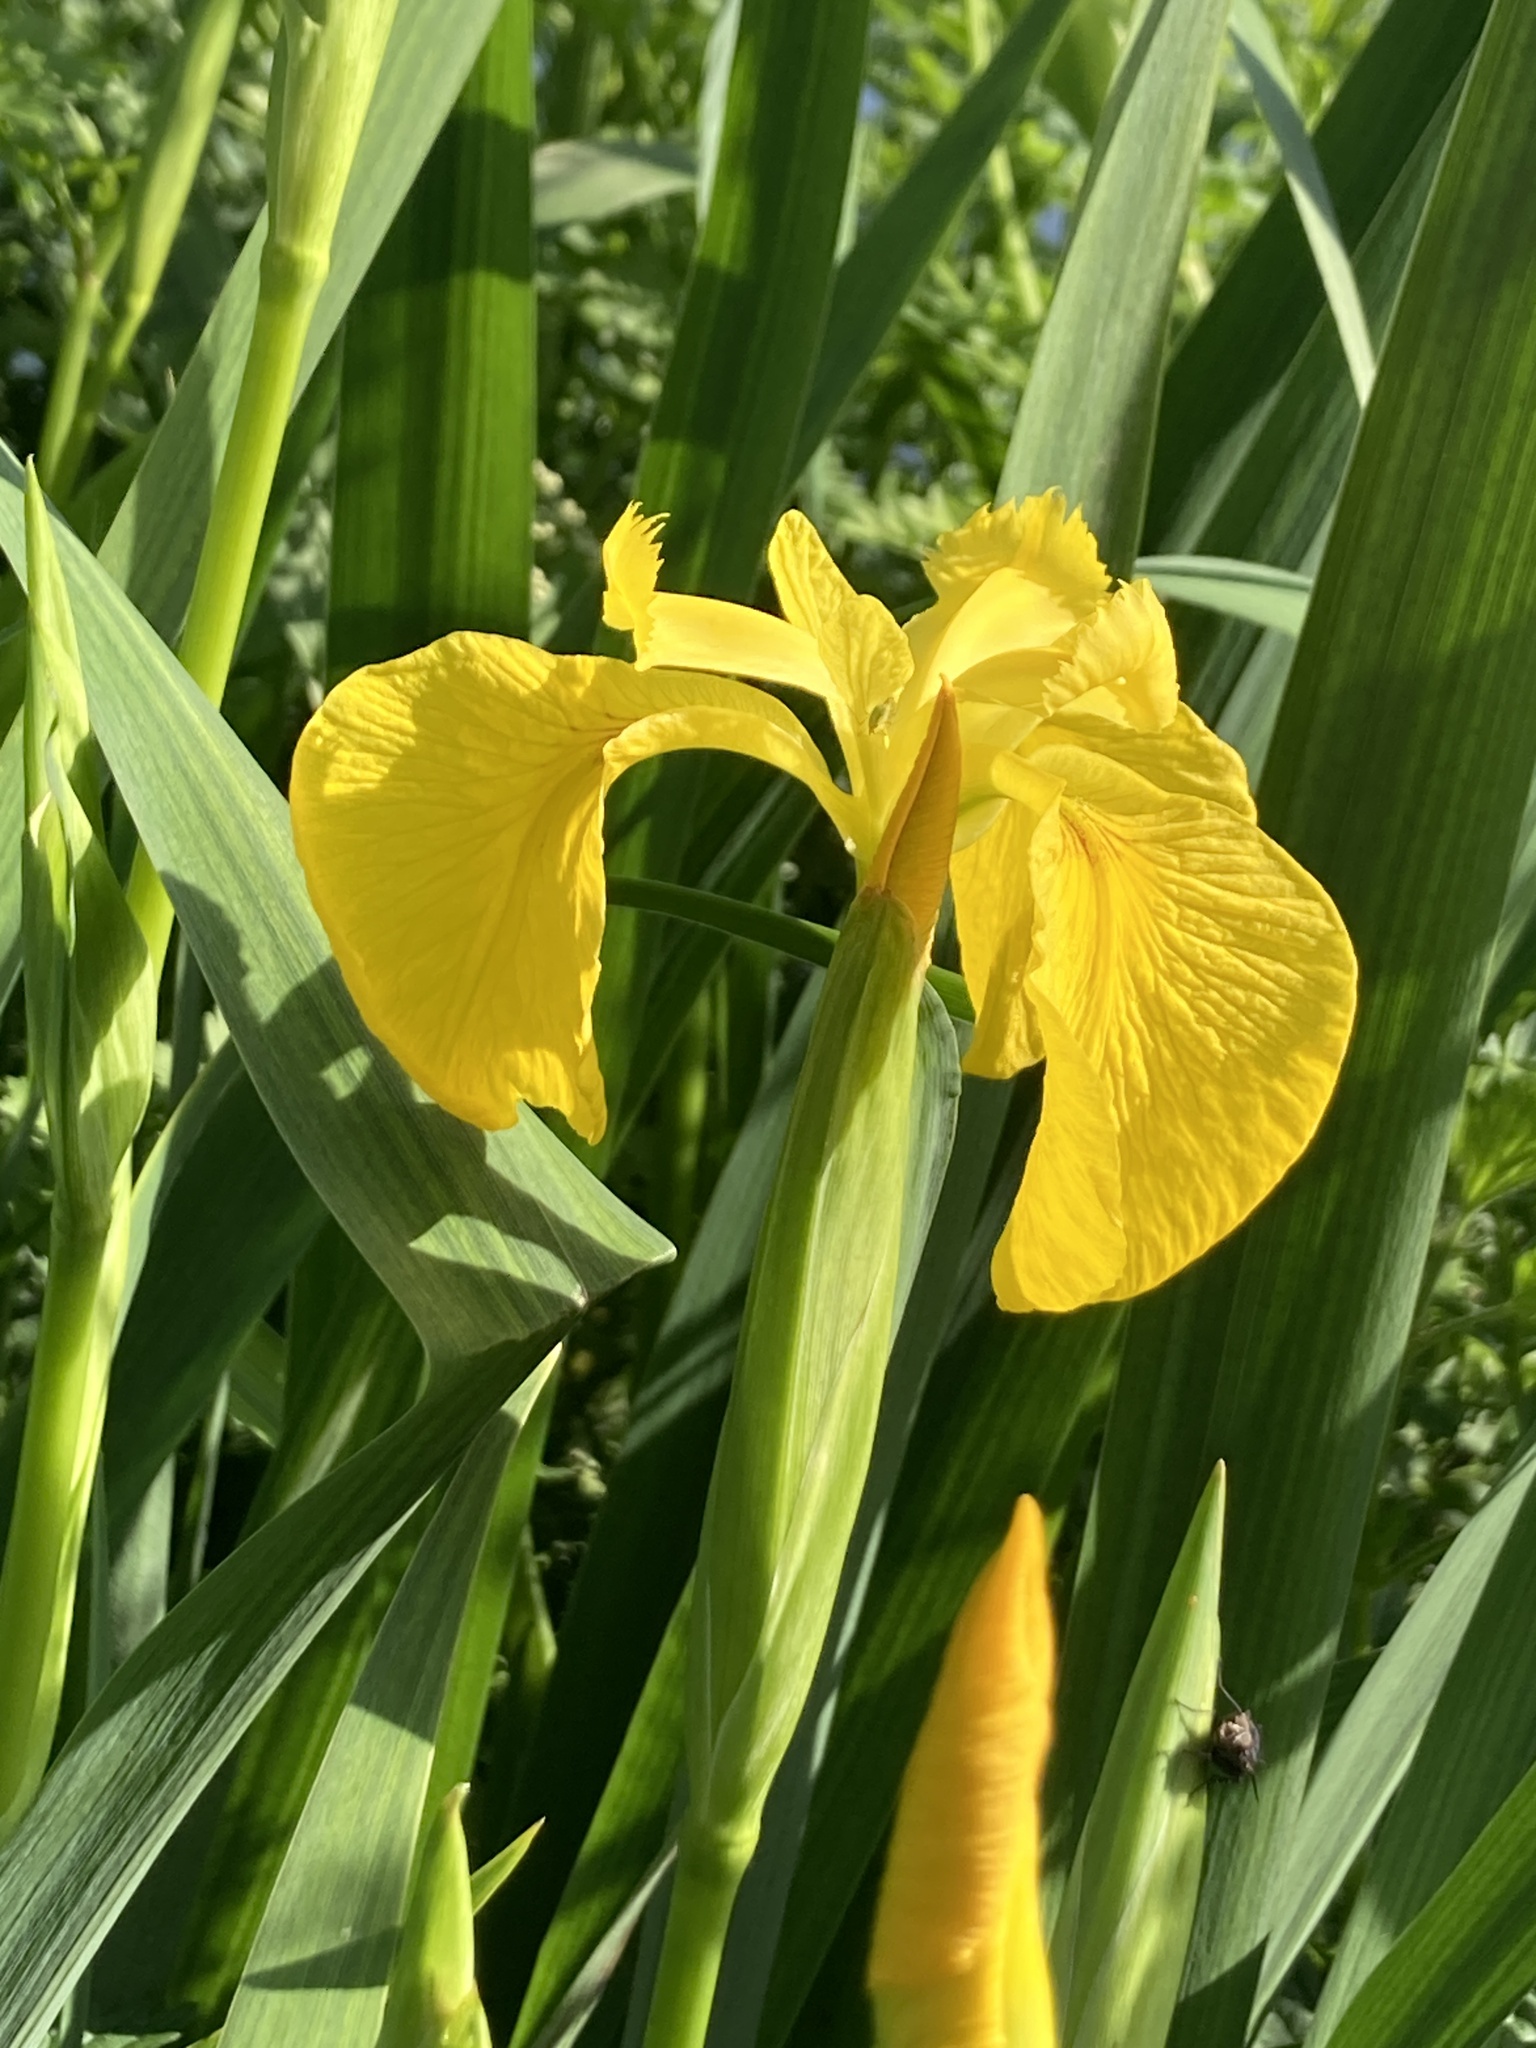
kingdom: Plantae
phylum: Tracheophyta
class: Liliopsida
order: Asparagales
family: Iridaceae
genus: Iris
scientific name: Iris pseudacorus
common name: Yellow flag
